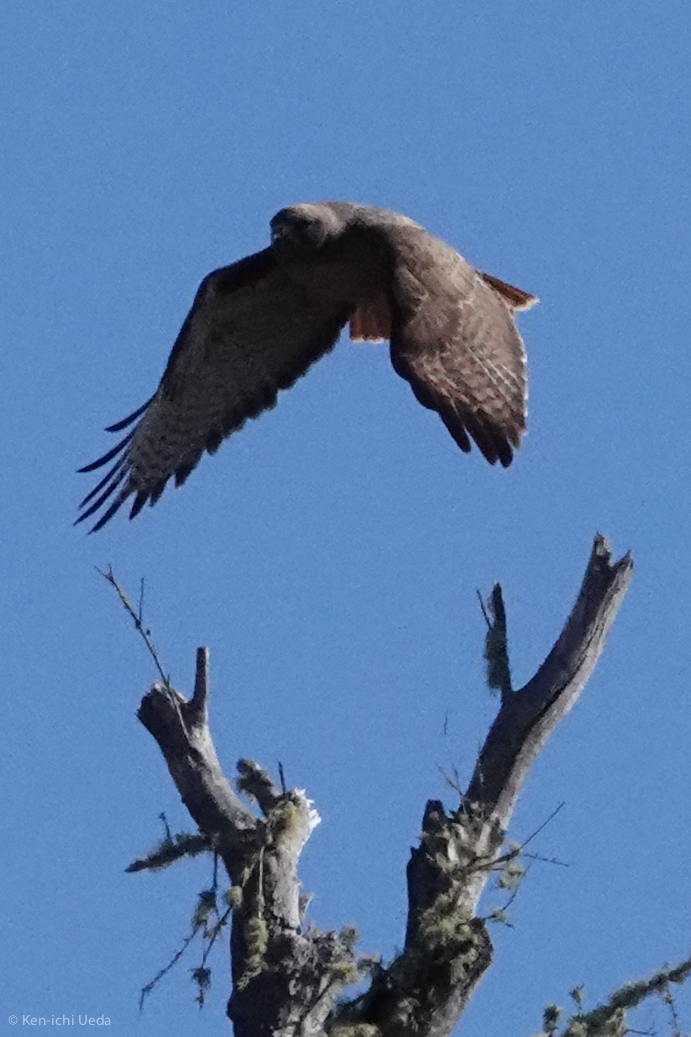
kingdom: Animalia
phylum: Chordata
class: Aves
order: Accipitriformes
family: Accipitridae
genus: Buteo
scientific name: Buteo jamaicensis
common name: Red-tailed hawk
